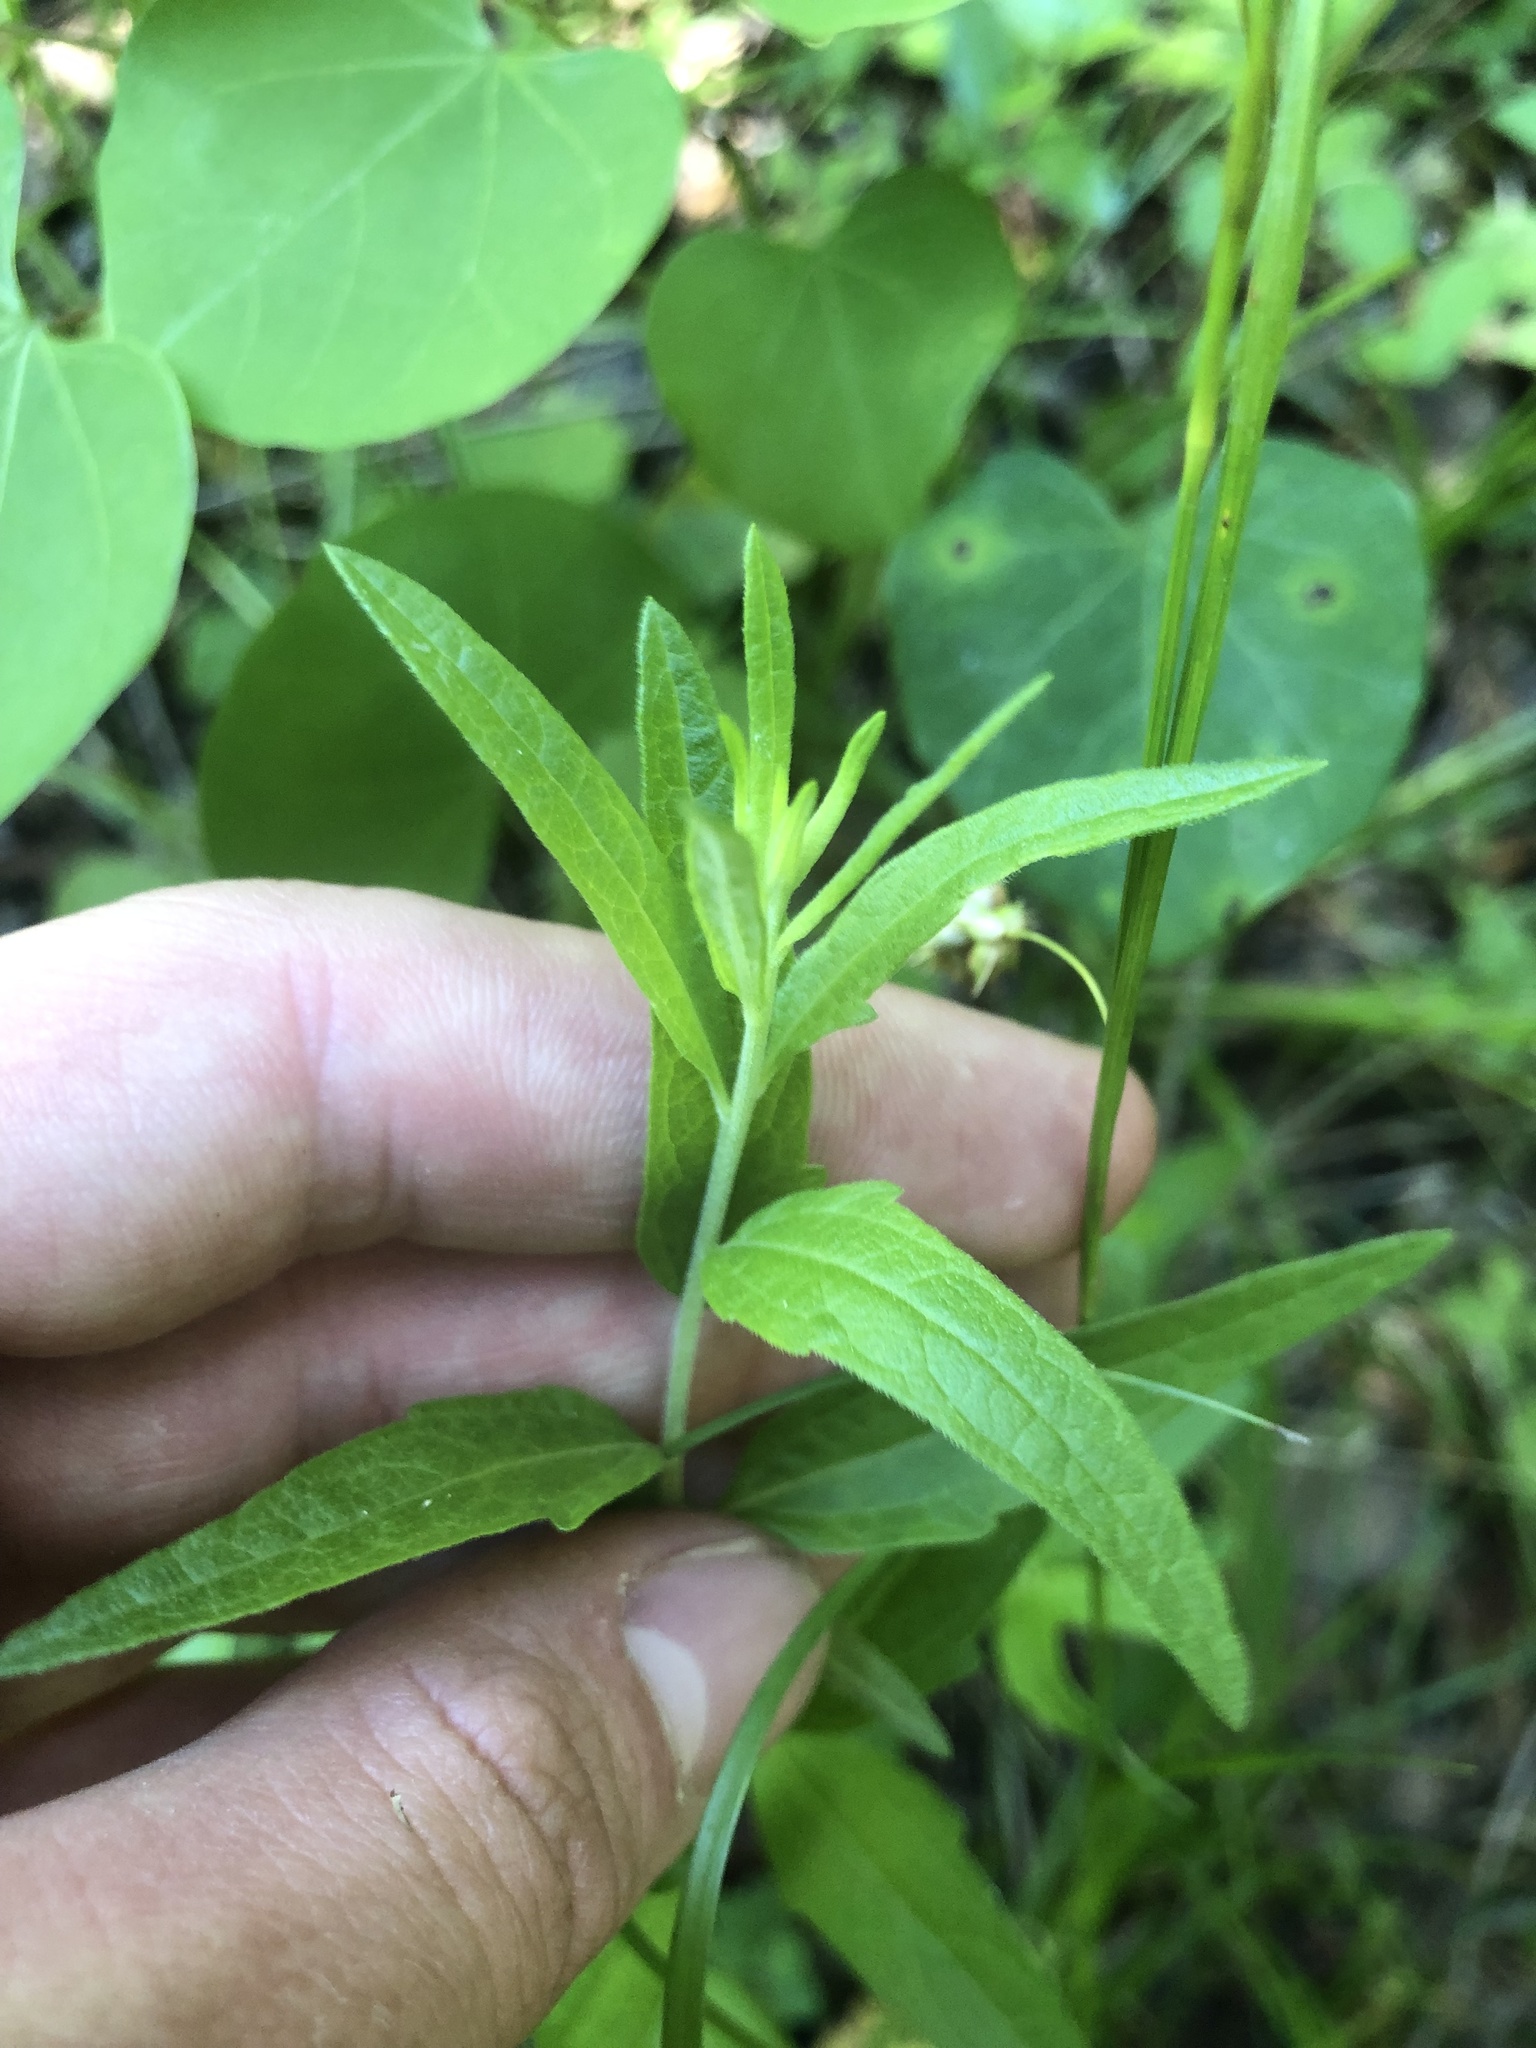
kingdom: Plantae
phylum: Tracheophyta
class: Magnoliopsida
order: Asterales
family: Asteraceae
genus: Brickellia
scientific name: Brickellia macranthra
